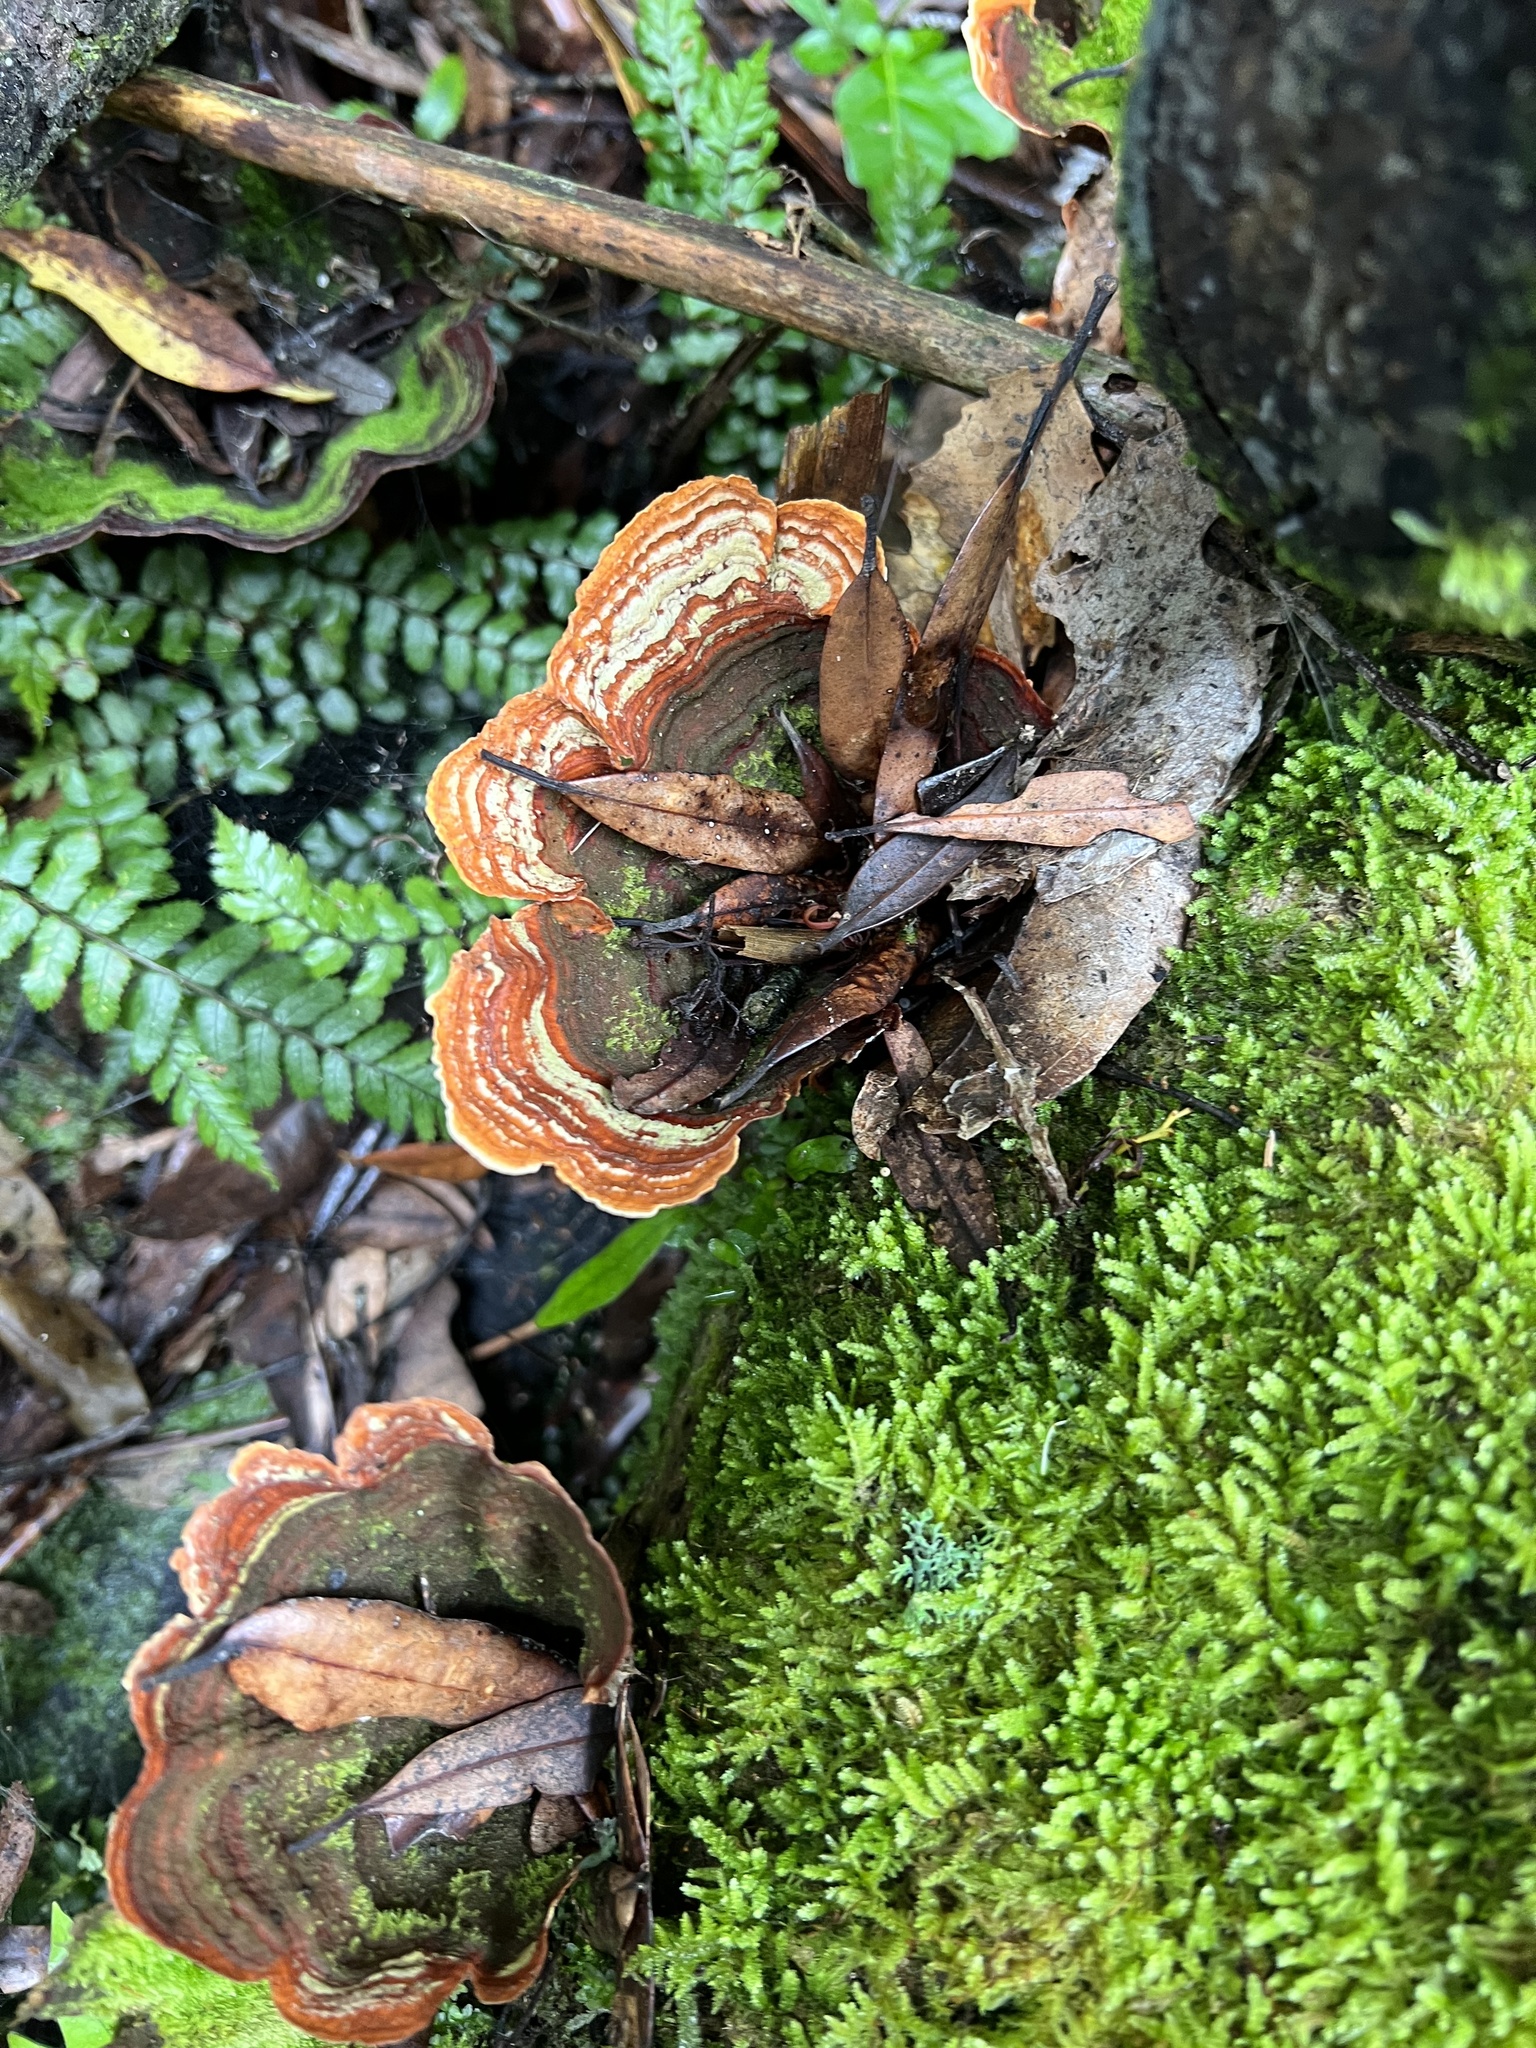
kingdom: Fungi
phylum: Basidiomycota
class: Agaricomycetes
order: Russulales
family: Stereaceae
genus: Stereum
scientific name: Stereum versicolor
